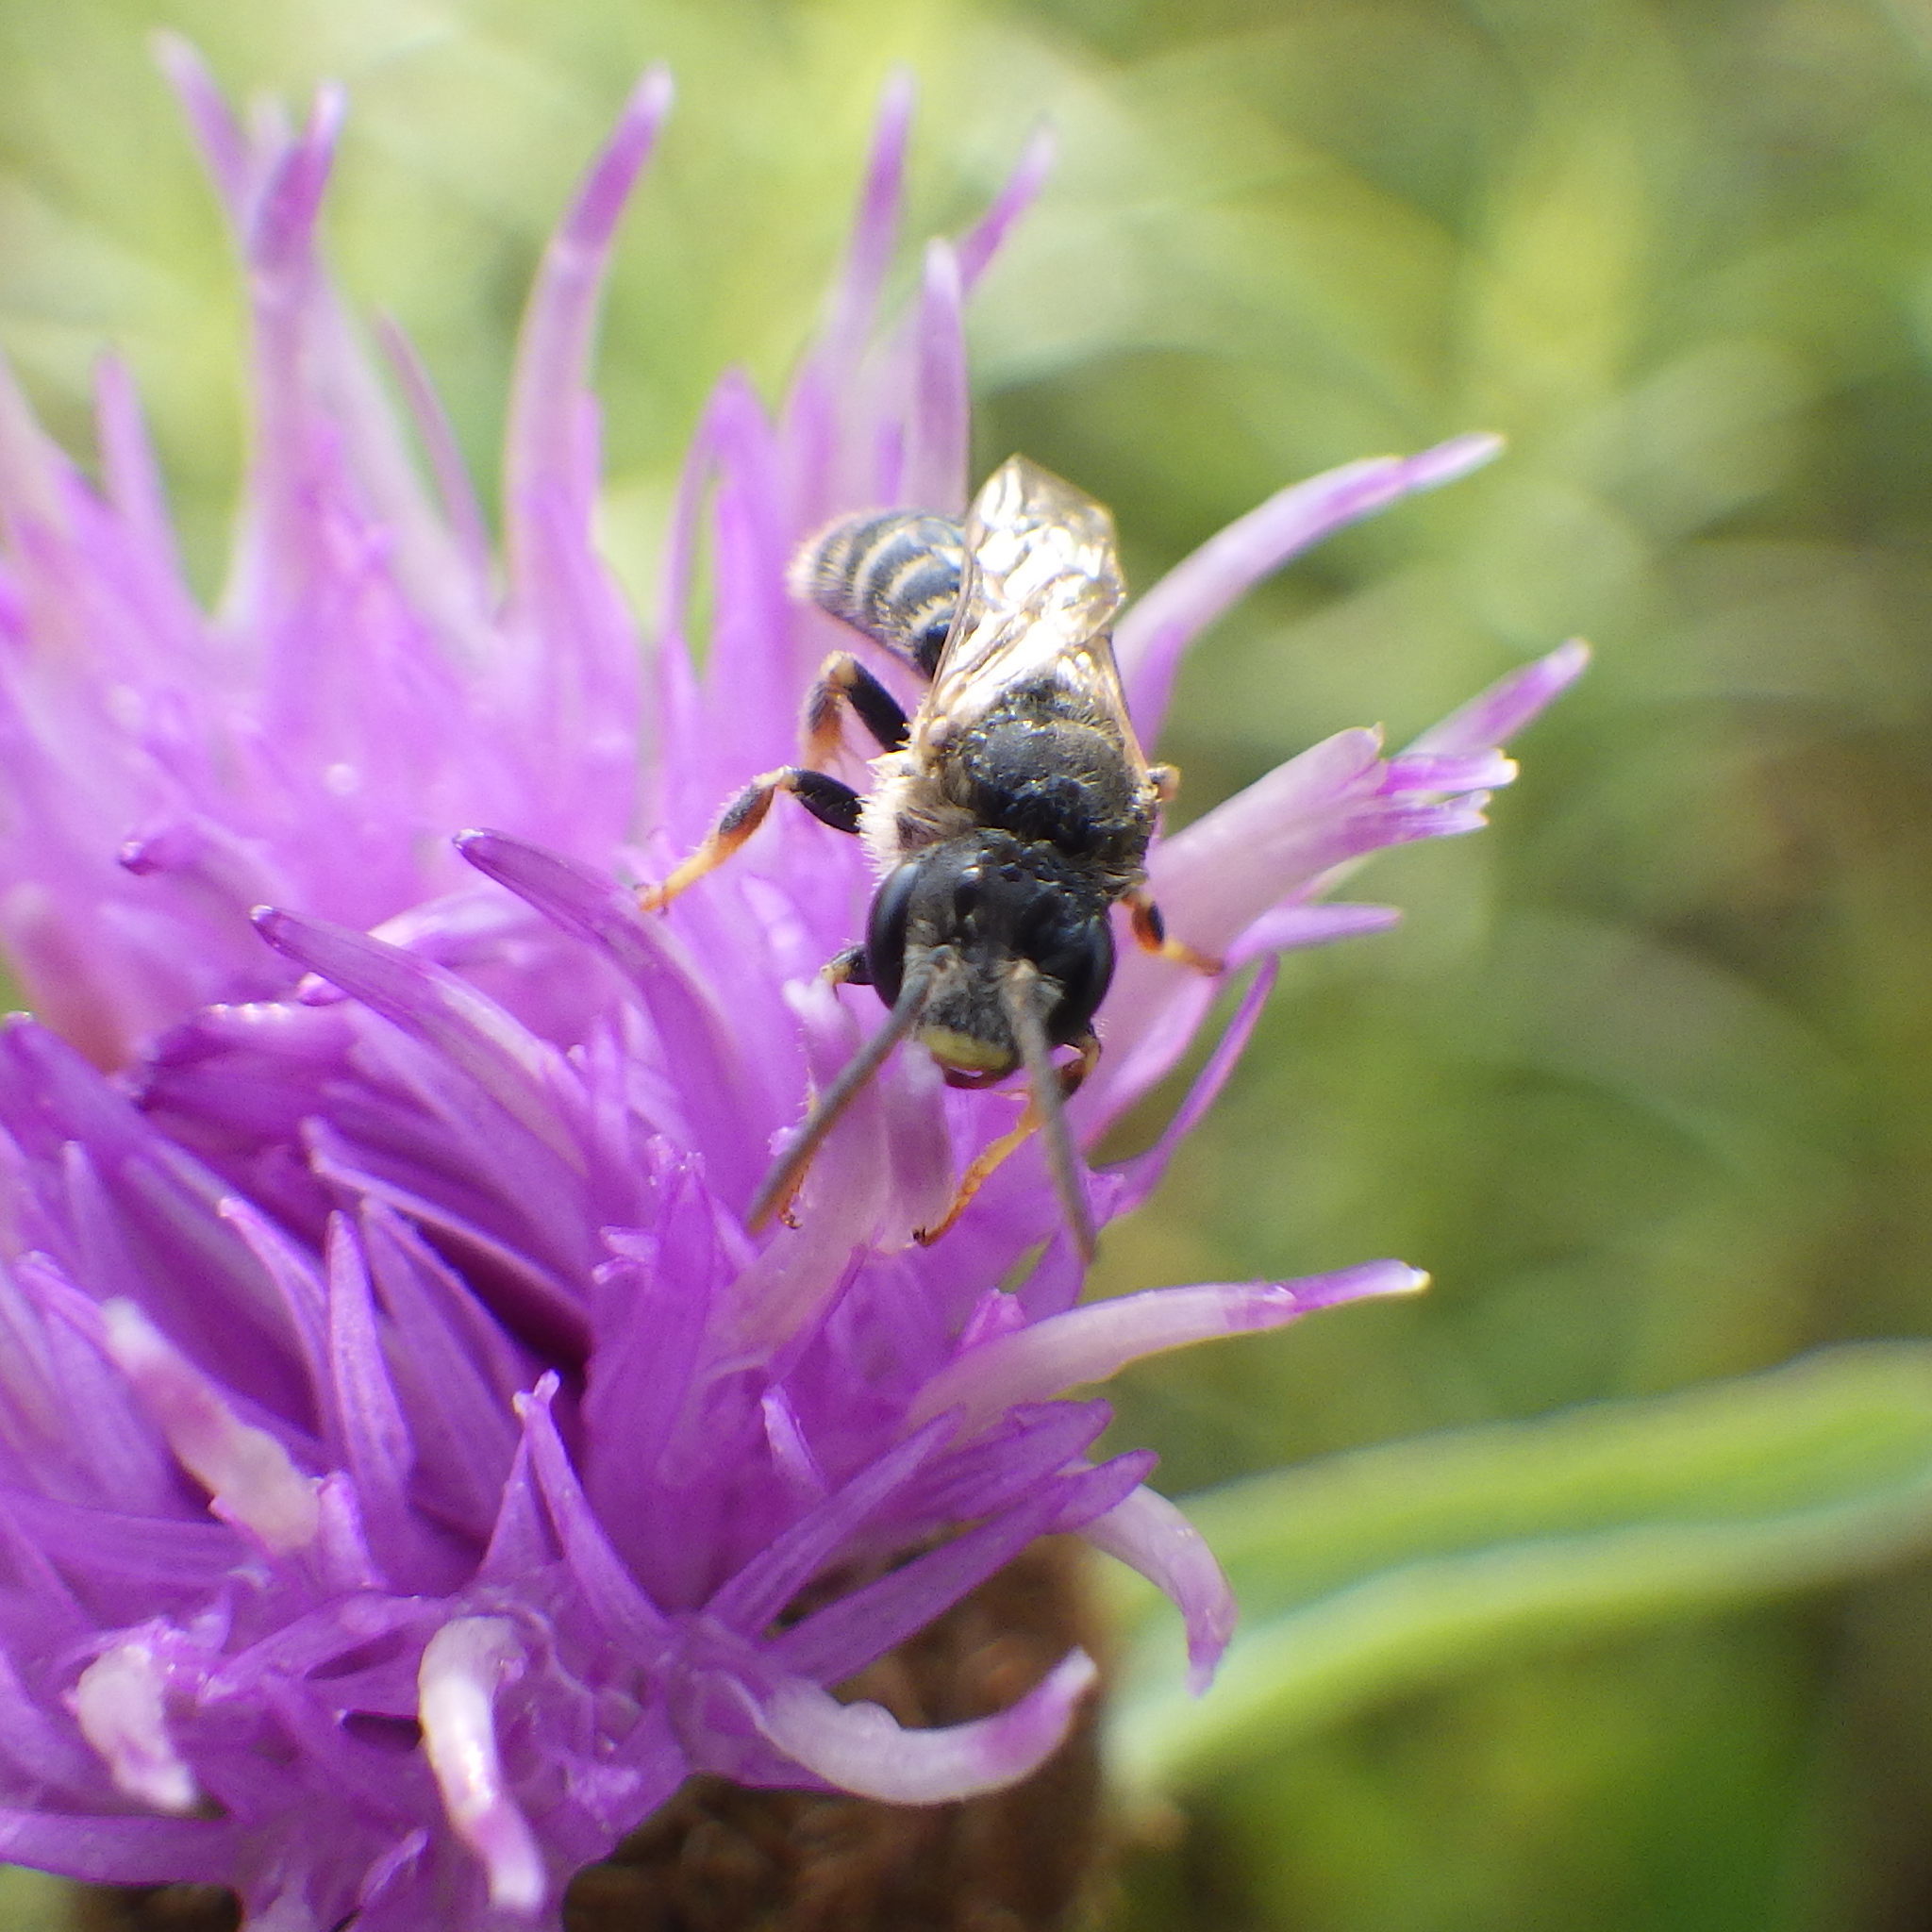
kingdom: Animalia
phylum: Arthropoda
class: Insecta
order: Hymenoptera
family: Halictidae
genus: Halictus
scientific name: Halictus ligatus
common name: Ligated furrow bee
